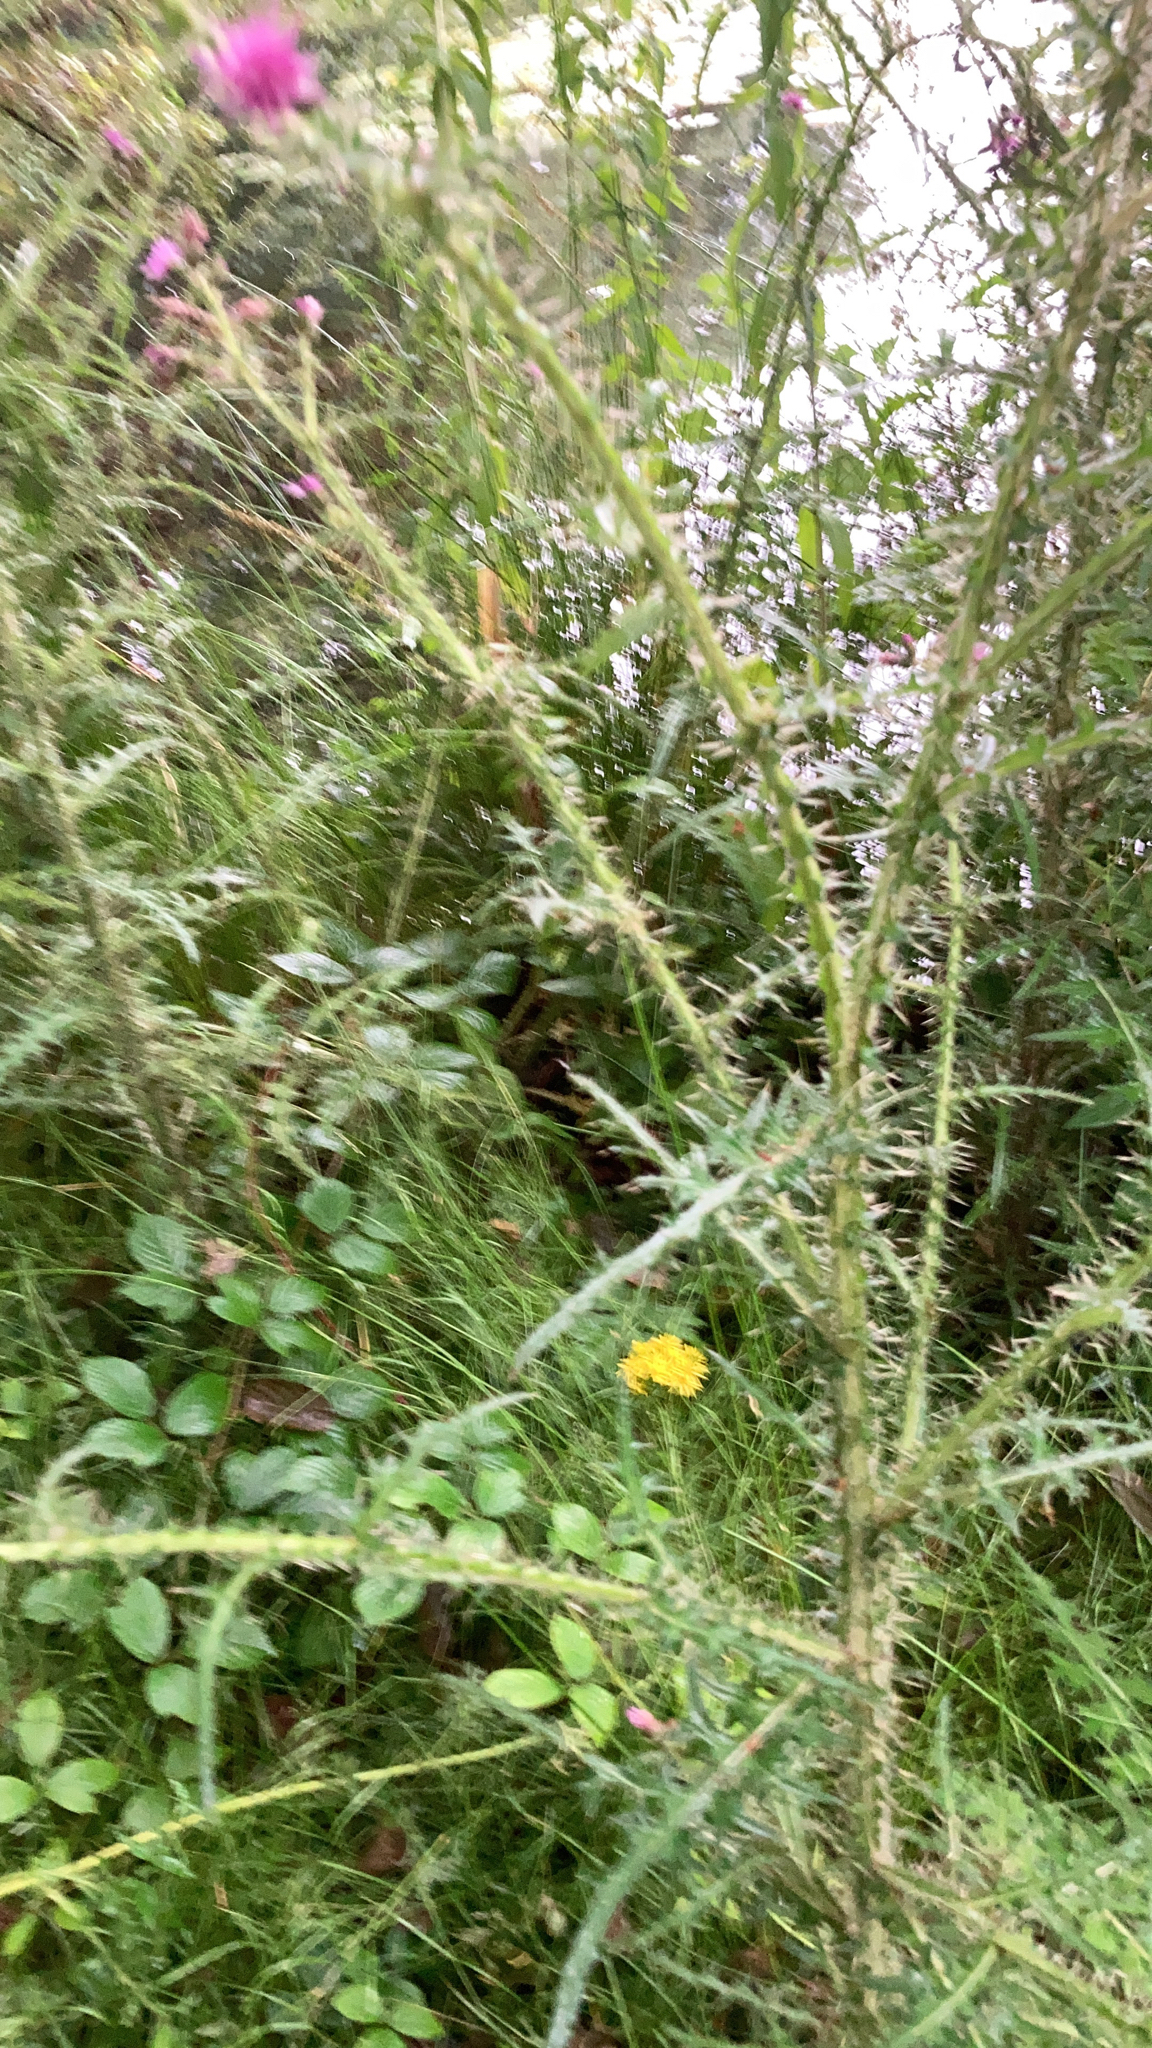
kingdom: Plantae
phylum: Tracheophyta
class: Magnoliopsida
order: Asterales
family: Asteraceae
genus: Cirsium
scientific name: Cirsium palustre
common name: Marsh thistle
